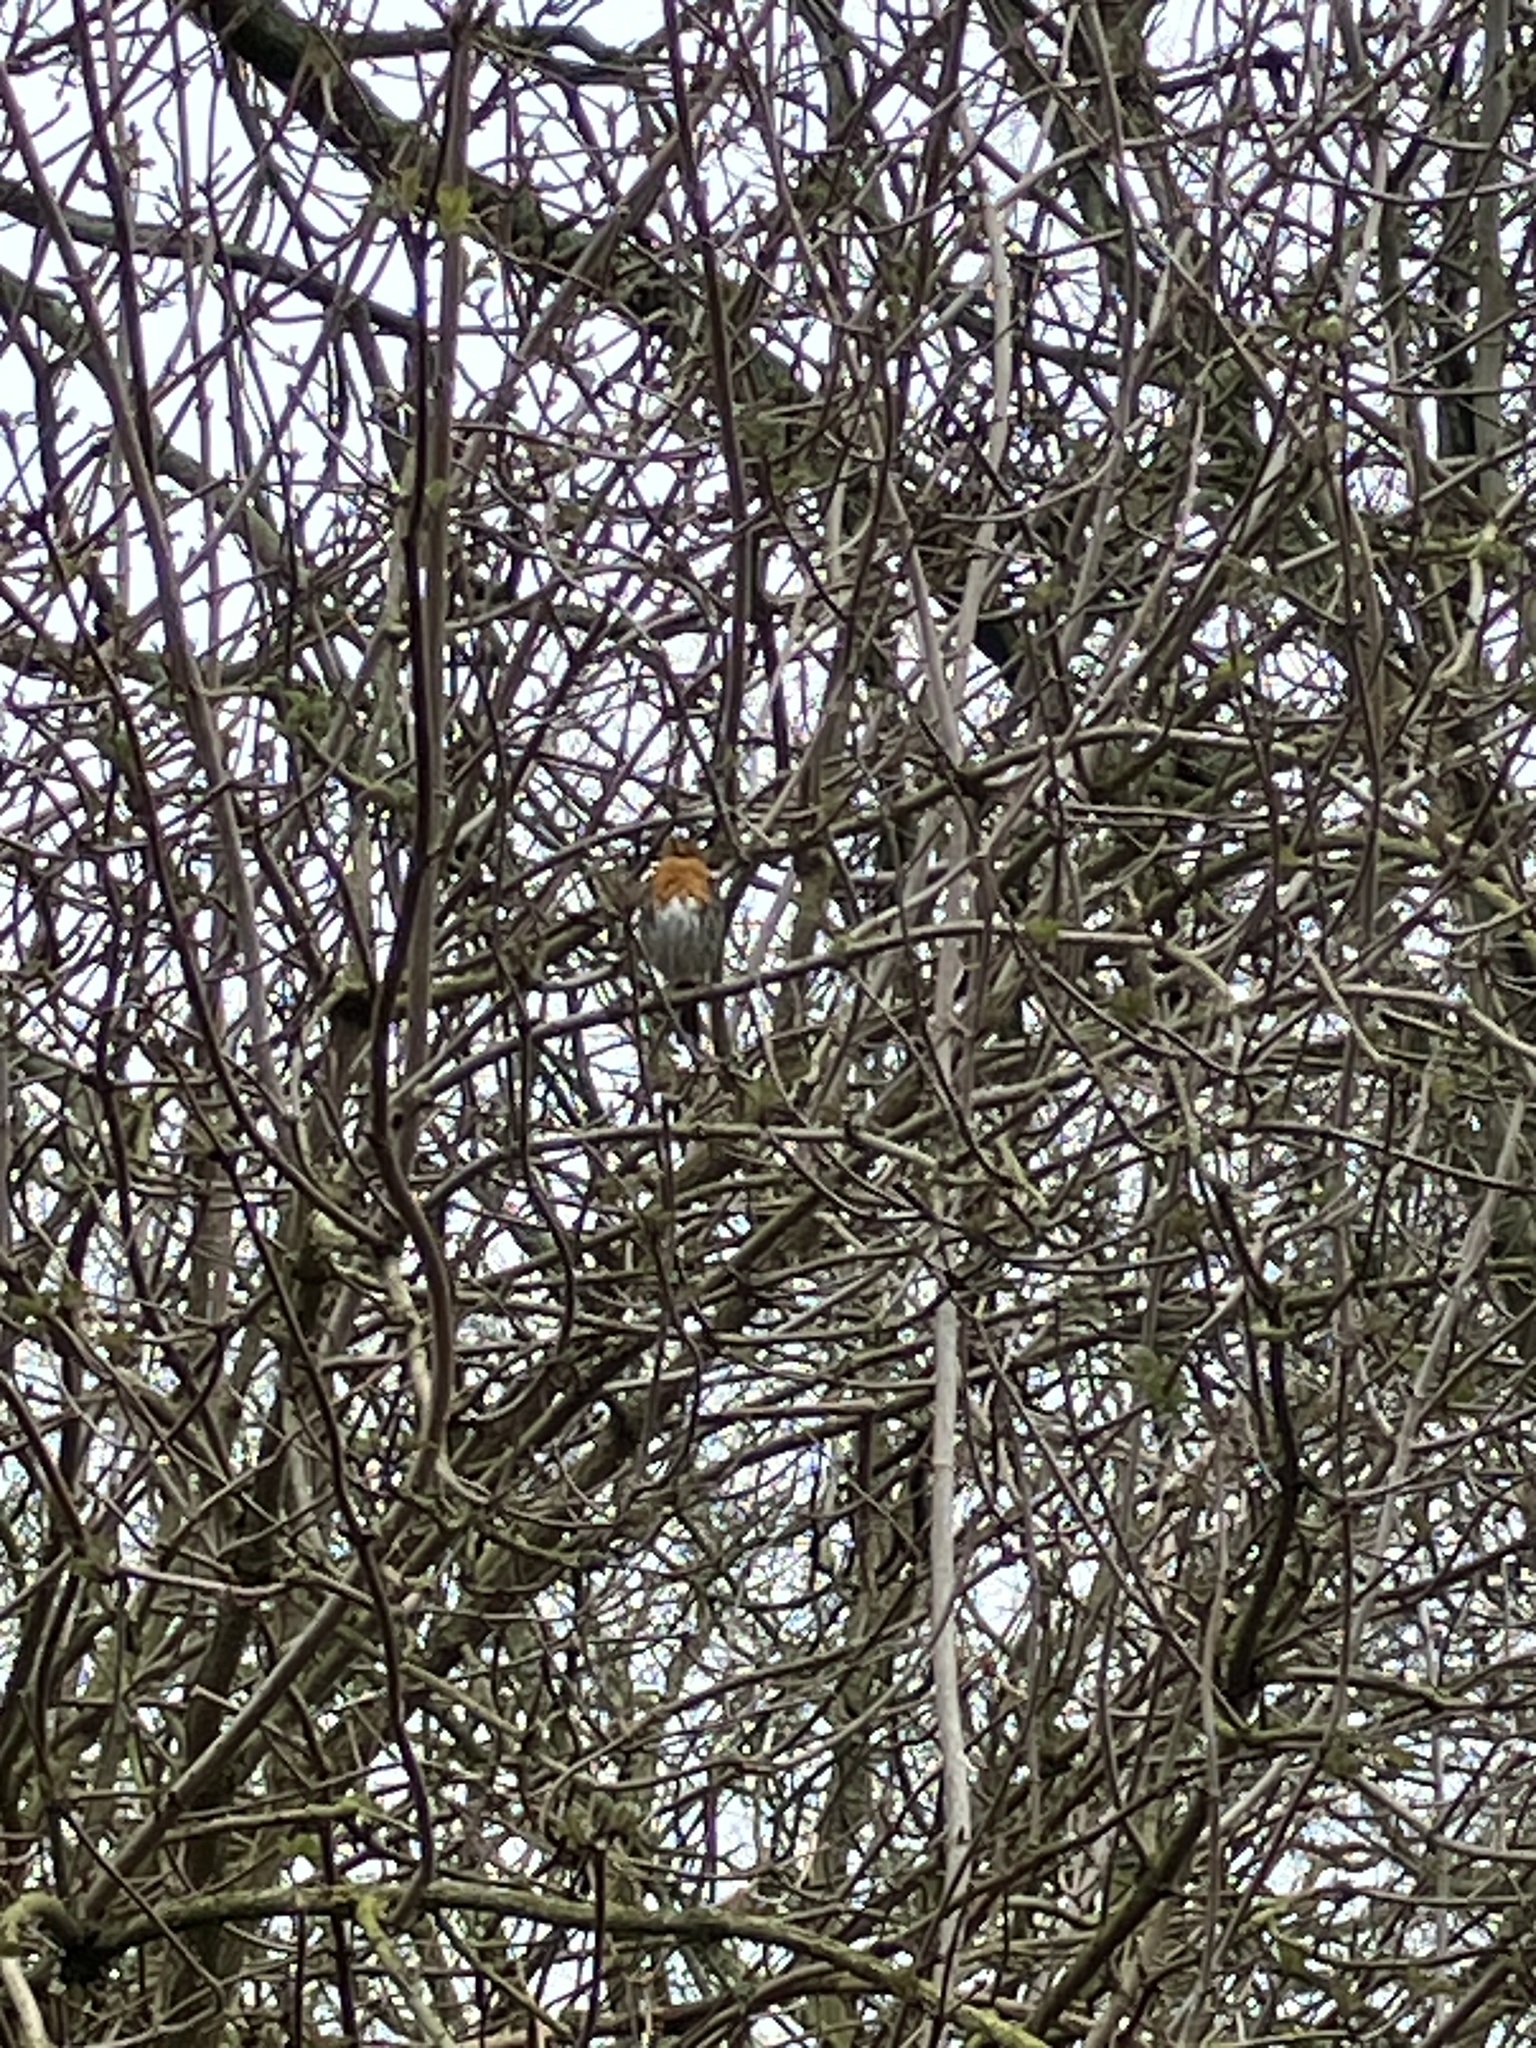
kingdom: Animalia
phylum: Chordata
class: Aves
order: Passeriformes
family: Muscicapidae
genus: Erithacus
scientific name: Erithacus rubecula
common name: European robin
